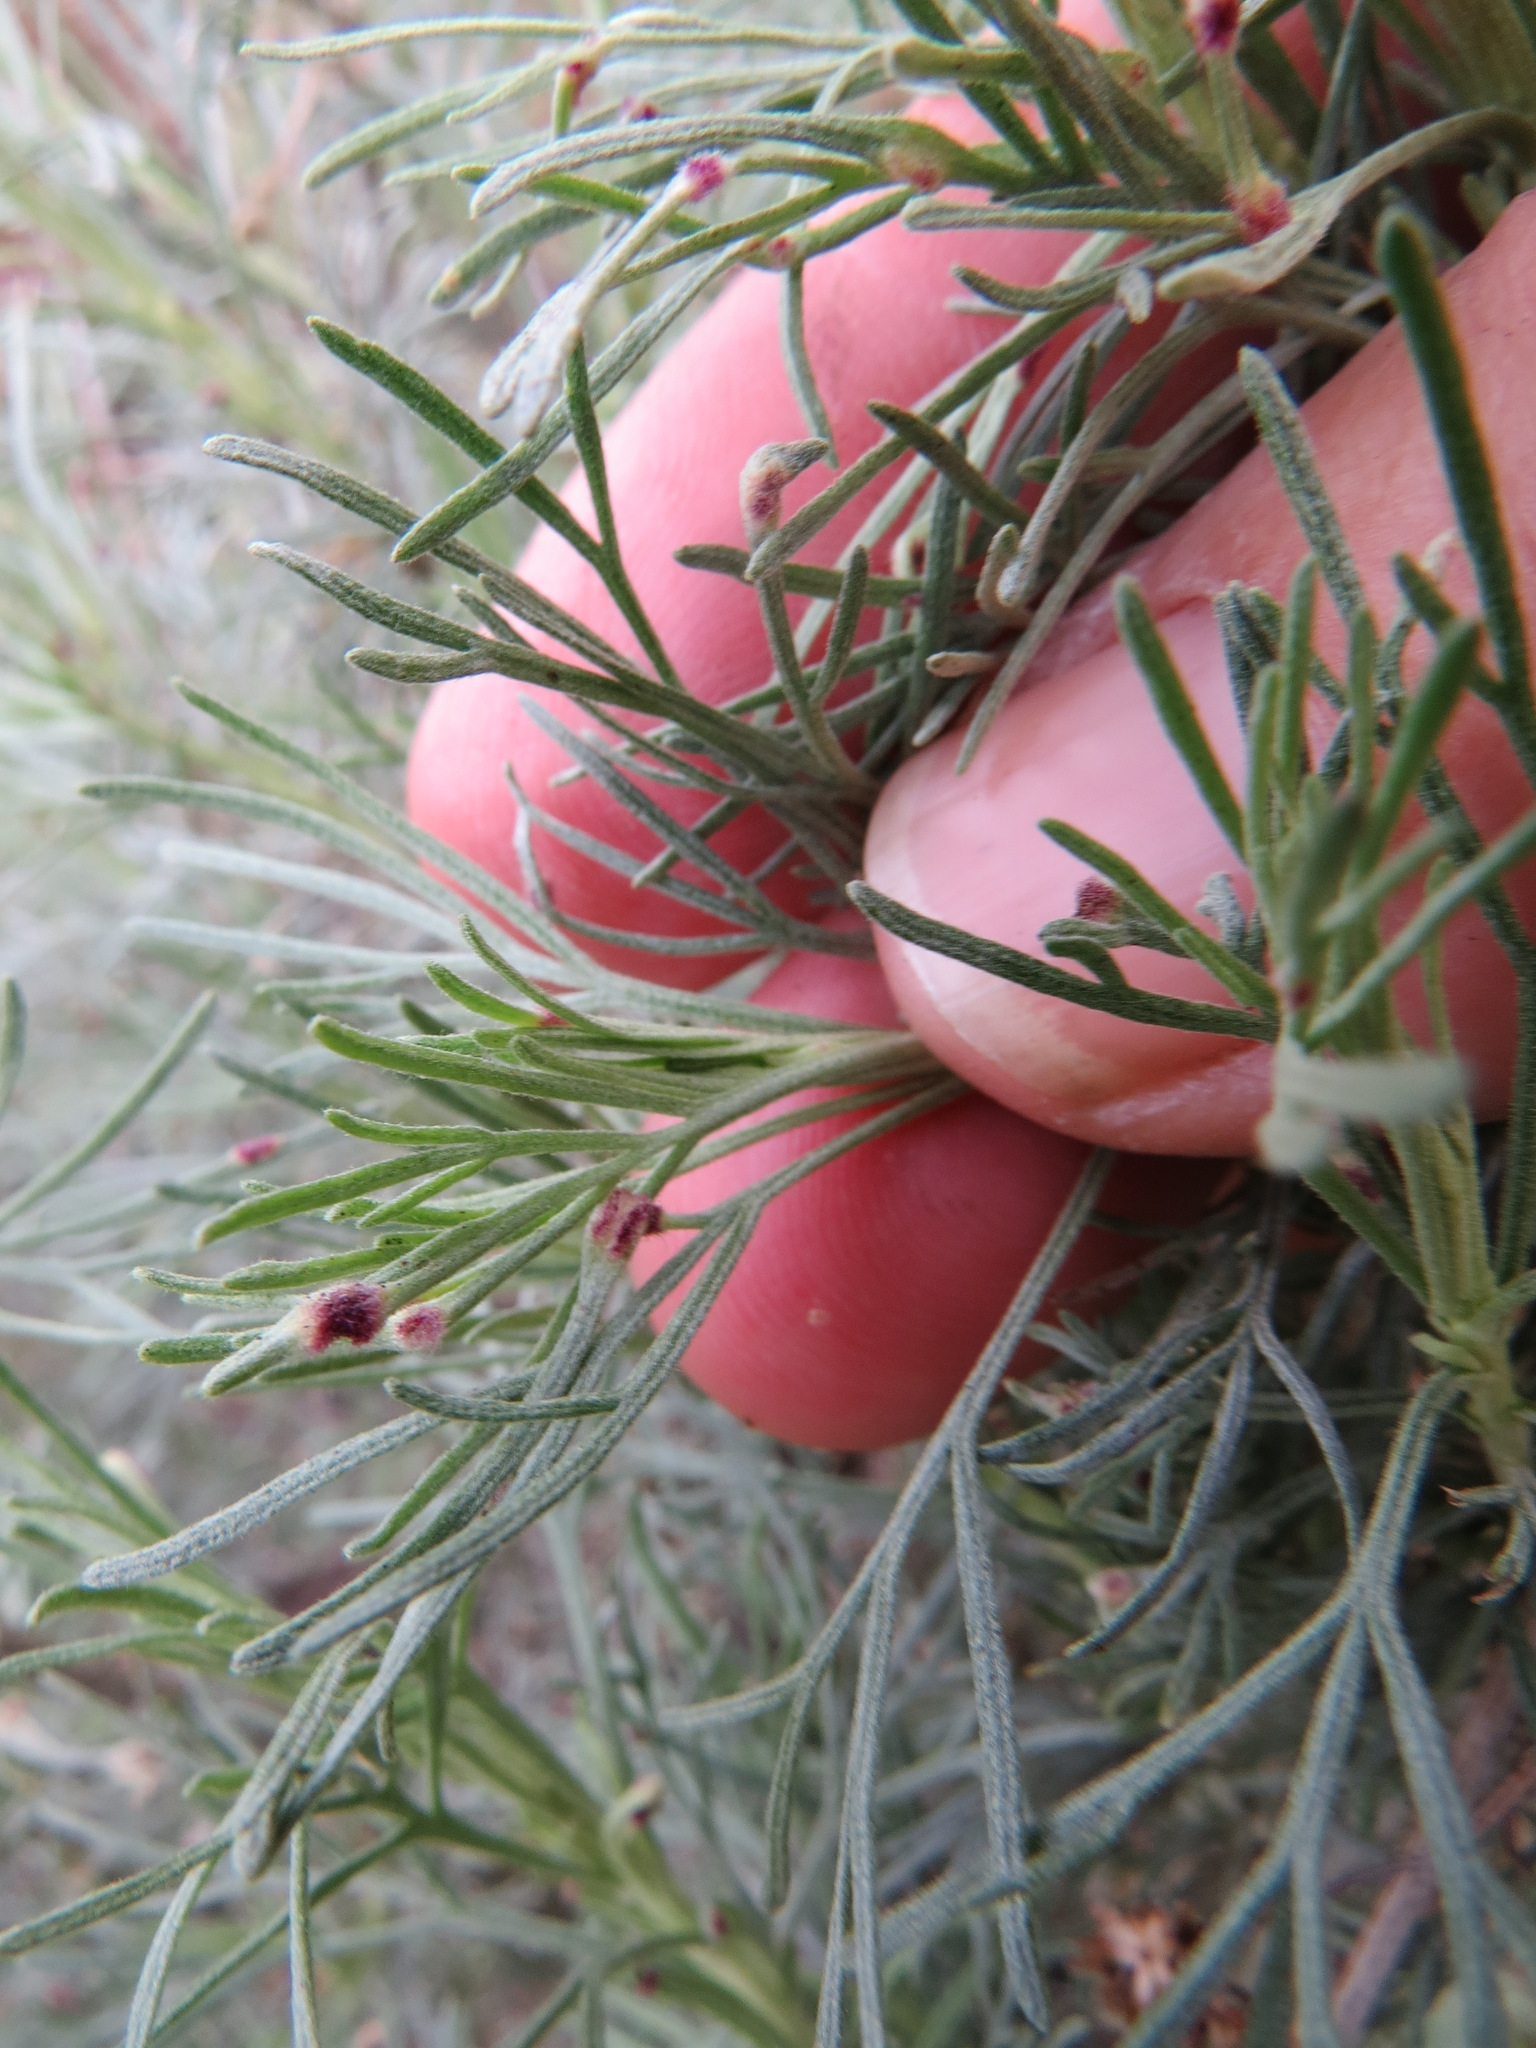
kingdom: Animalia
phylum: Arthropoda
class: Arachnida
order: Trombidiformes
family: Eriophyidae
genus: Aceria
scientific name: Aceria
